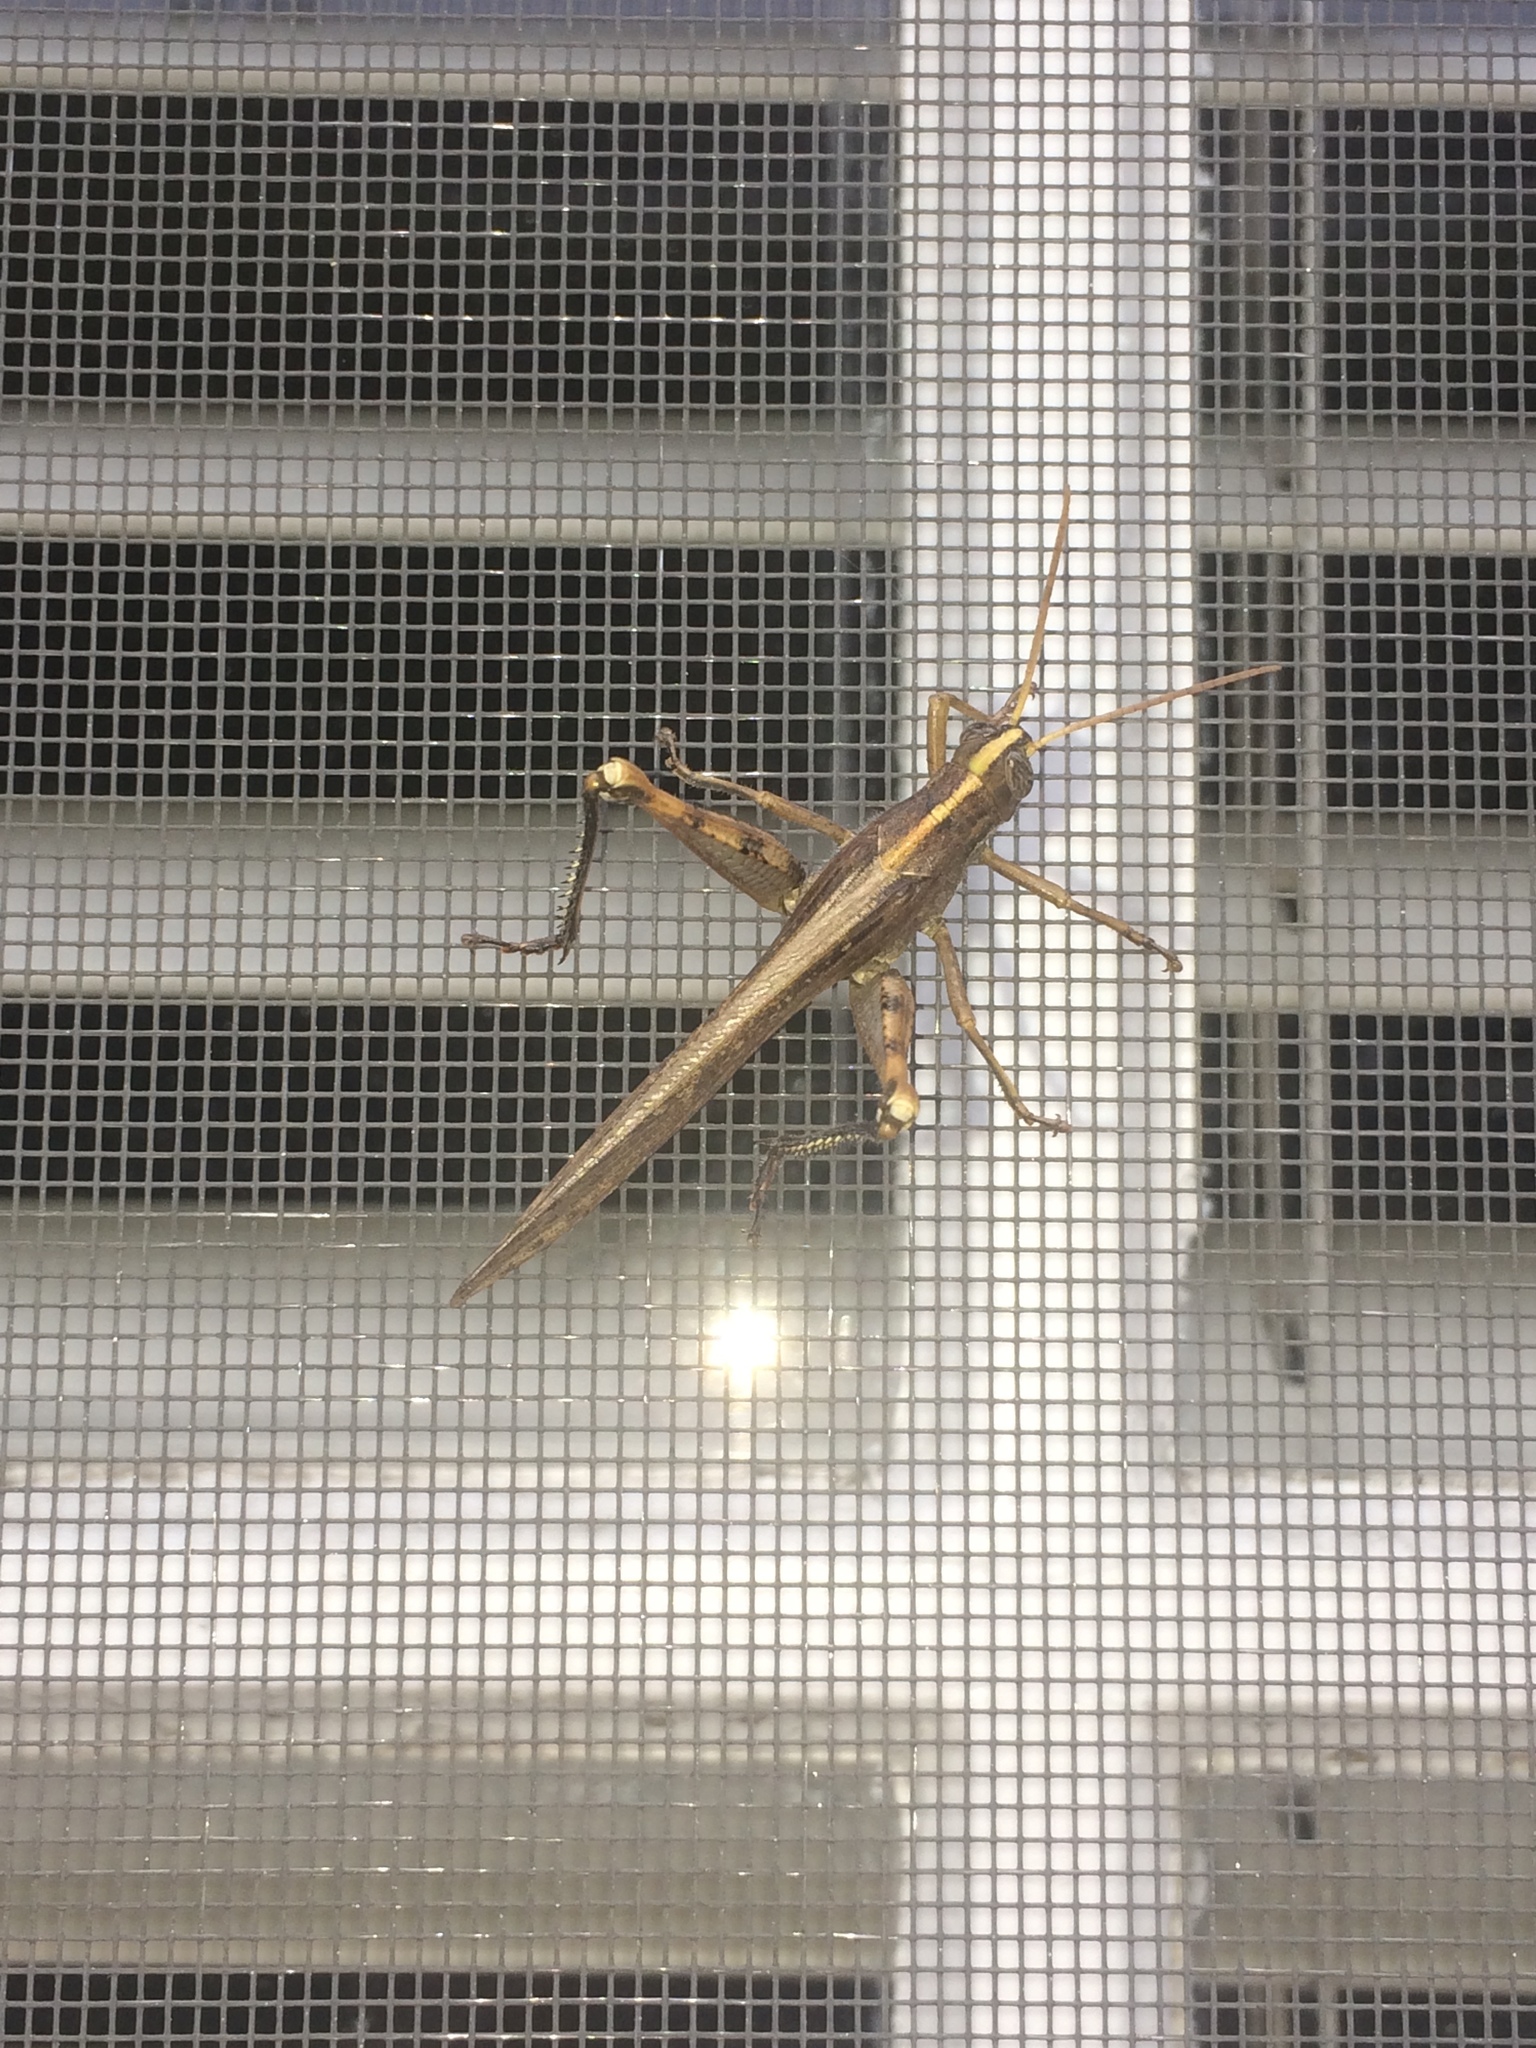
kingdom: Animalia
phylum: Arthropoda
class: Insecta
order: Orthoptera
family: Acrididae
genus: Schistocerca
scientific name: Schistocerca nitens
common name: Vagrant grasshopper
